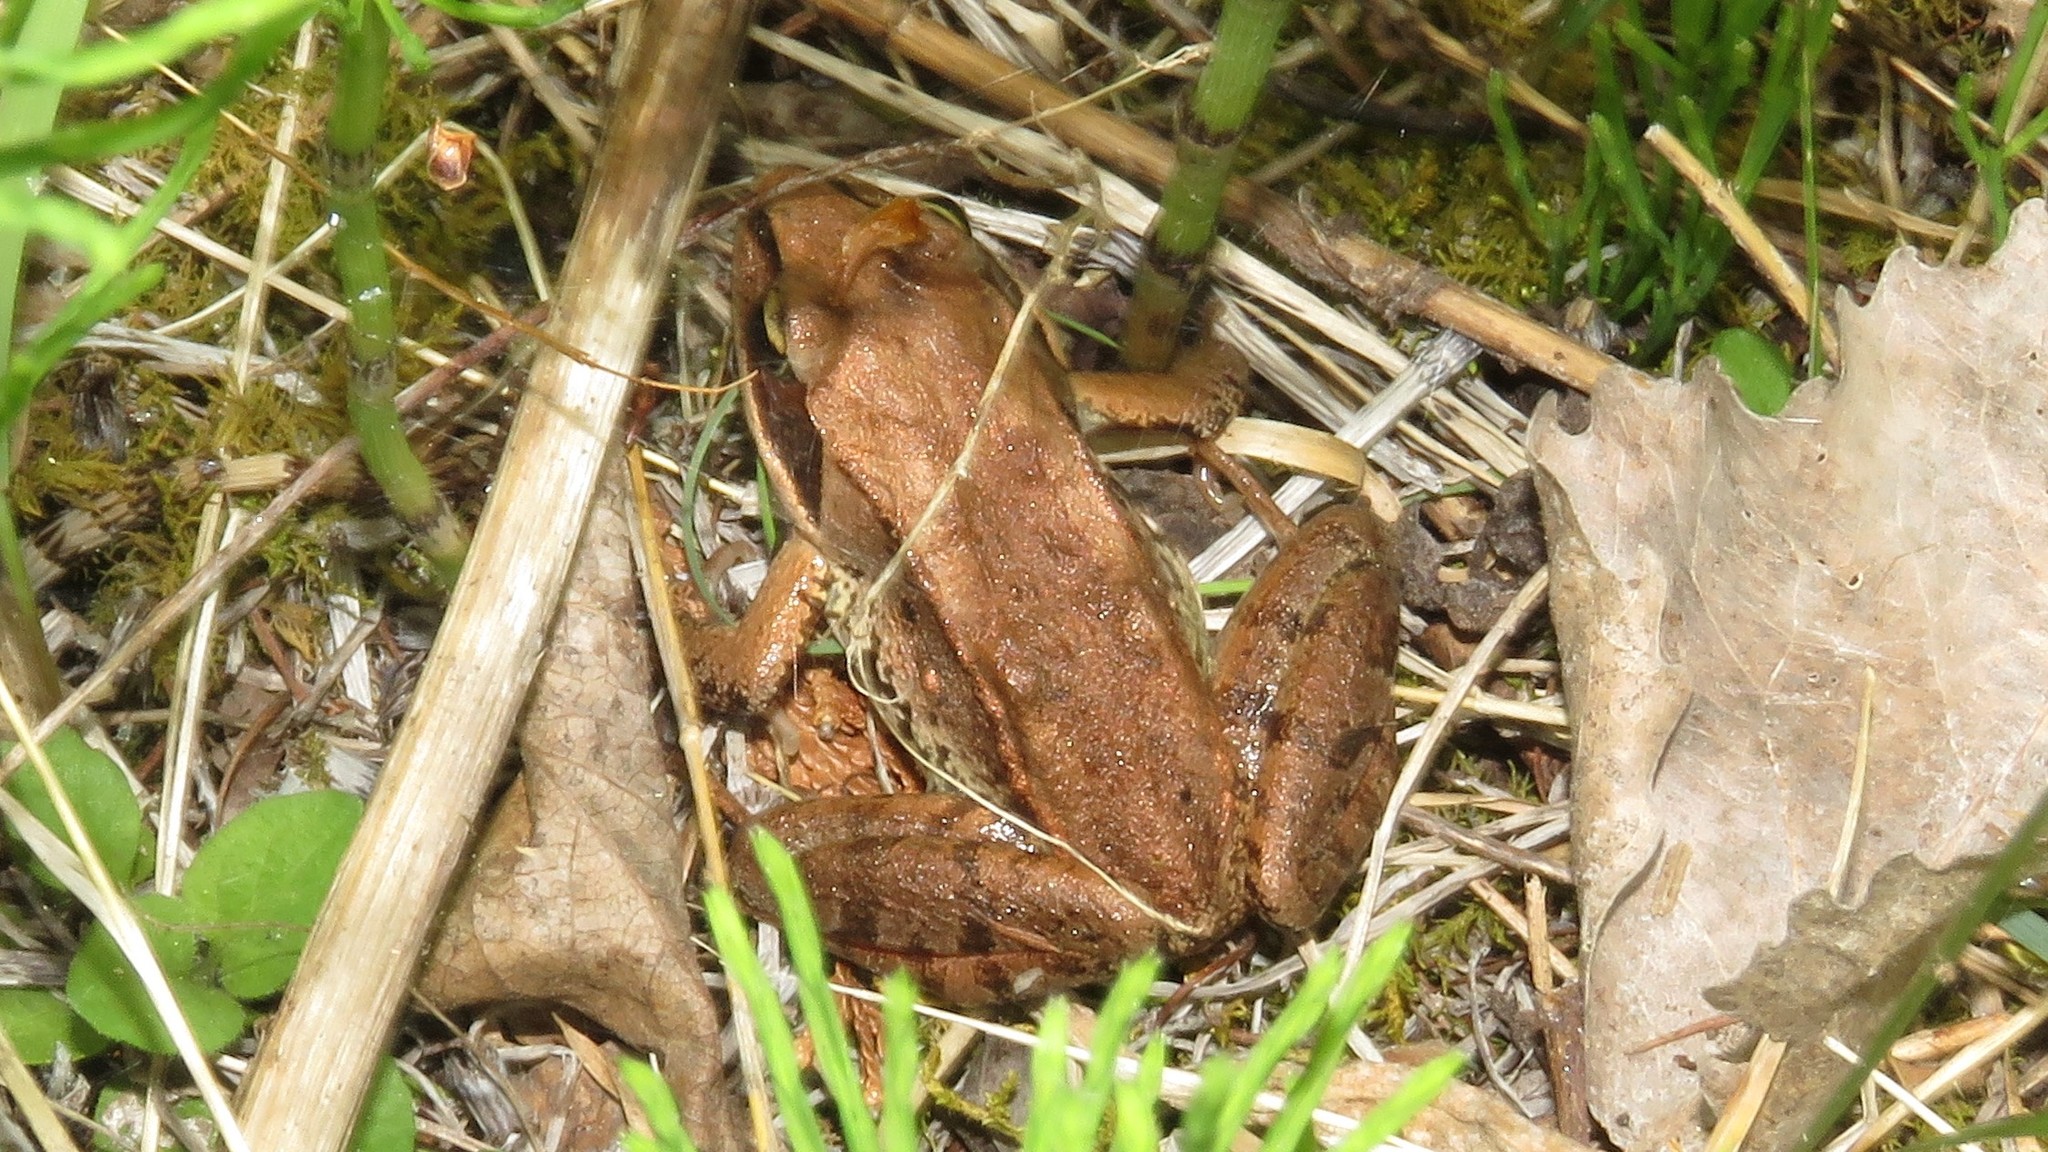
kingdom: Animalia
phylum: Chordata
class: Amphibia
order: Anura
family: Ranidae
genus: Lithobates
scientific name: Lithobates sylvaticus
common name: Wood frog
